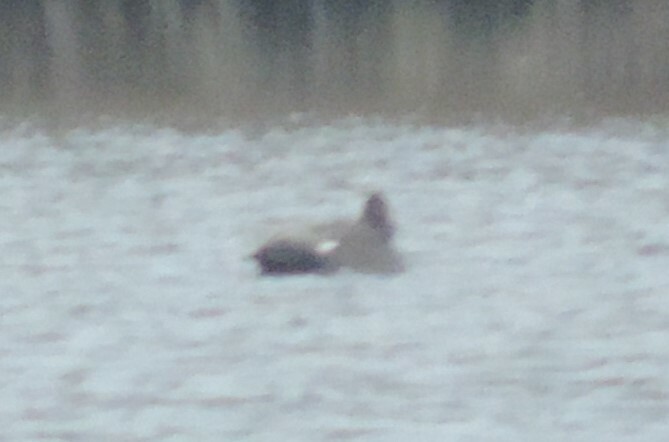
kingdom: Animalia
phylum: Chordata
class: Aves
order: Anseriformes
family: Anatidae
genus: Mareca
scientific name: Mareca strepera
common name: Gadwall
